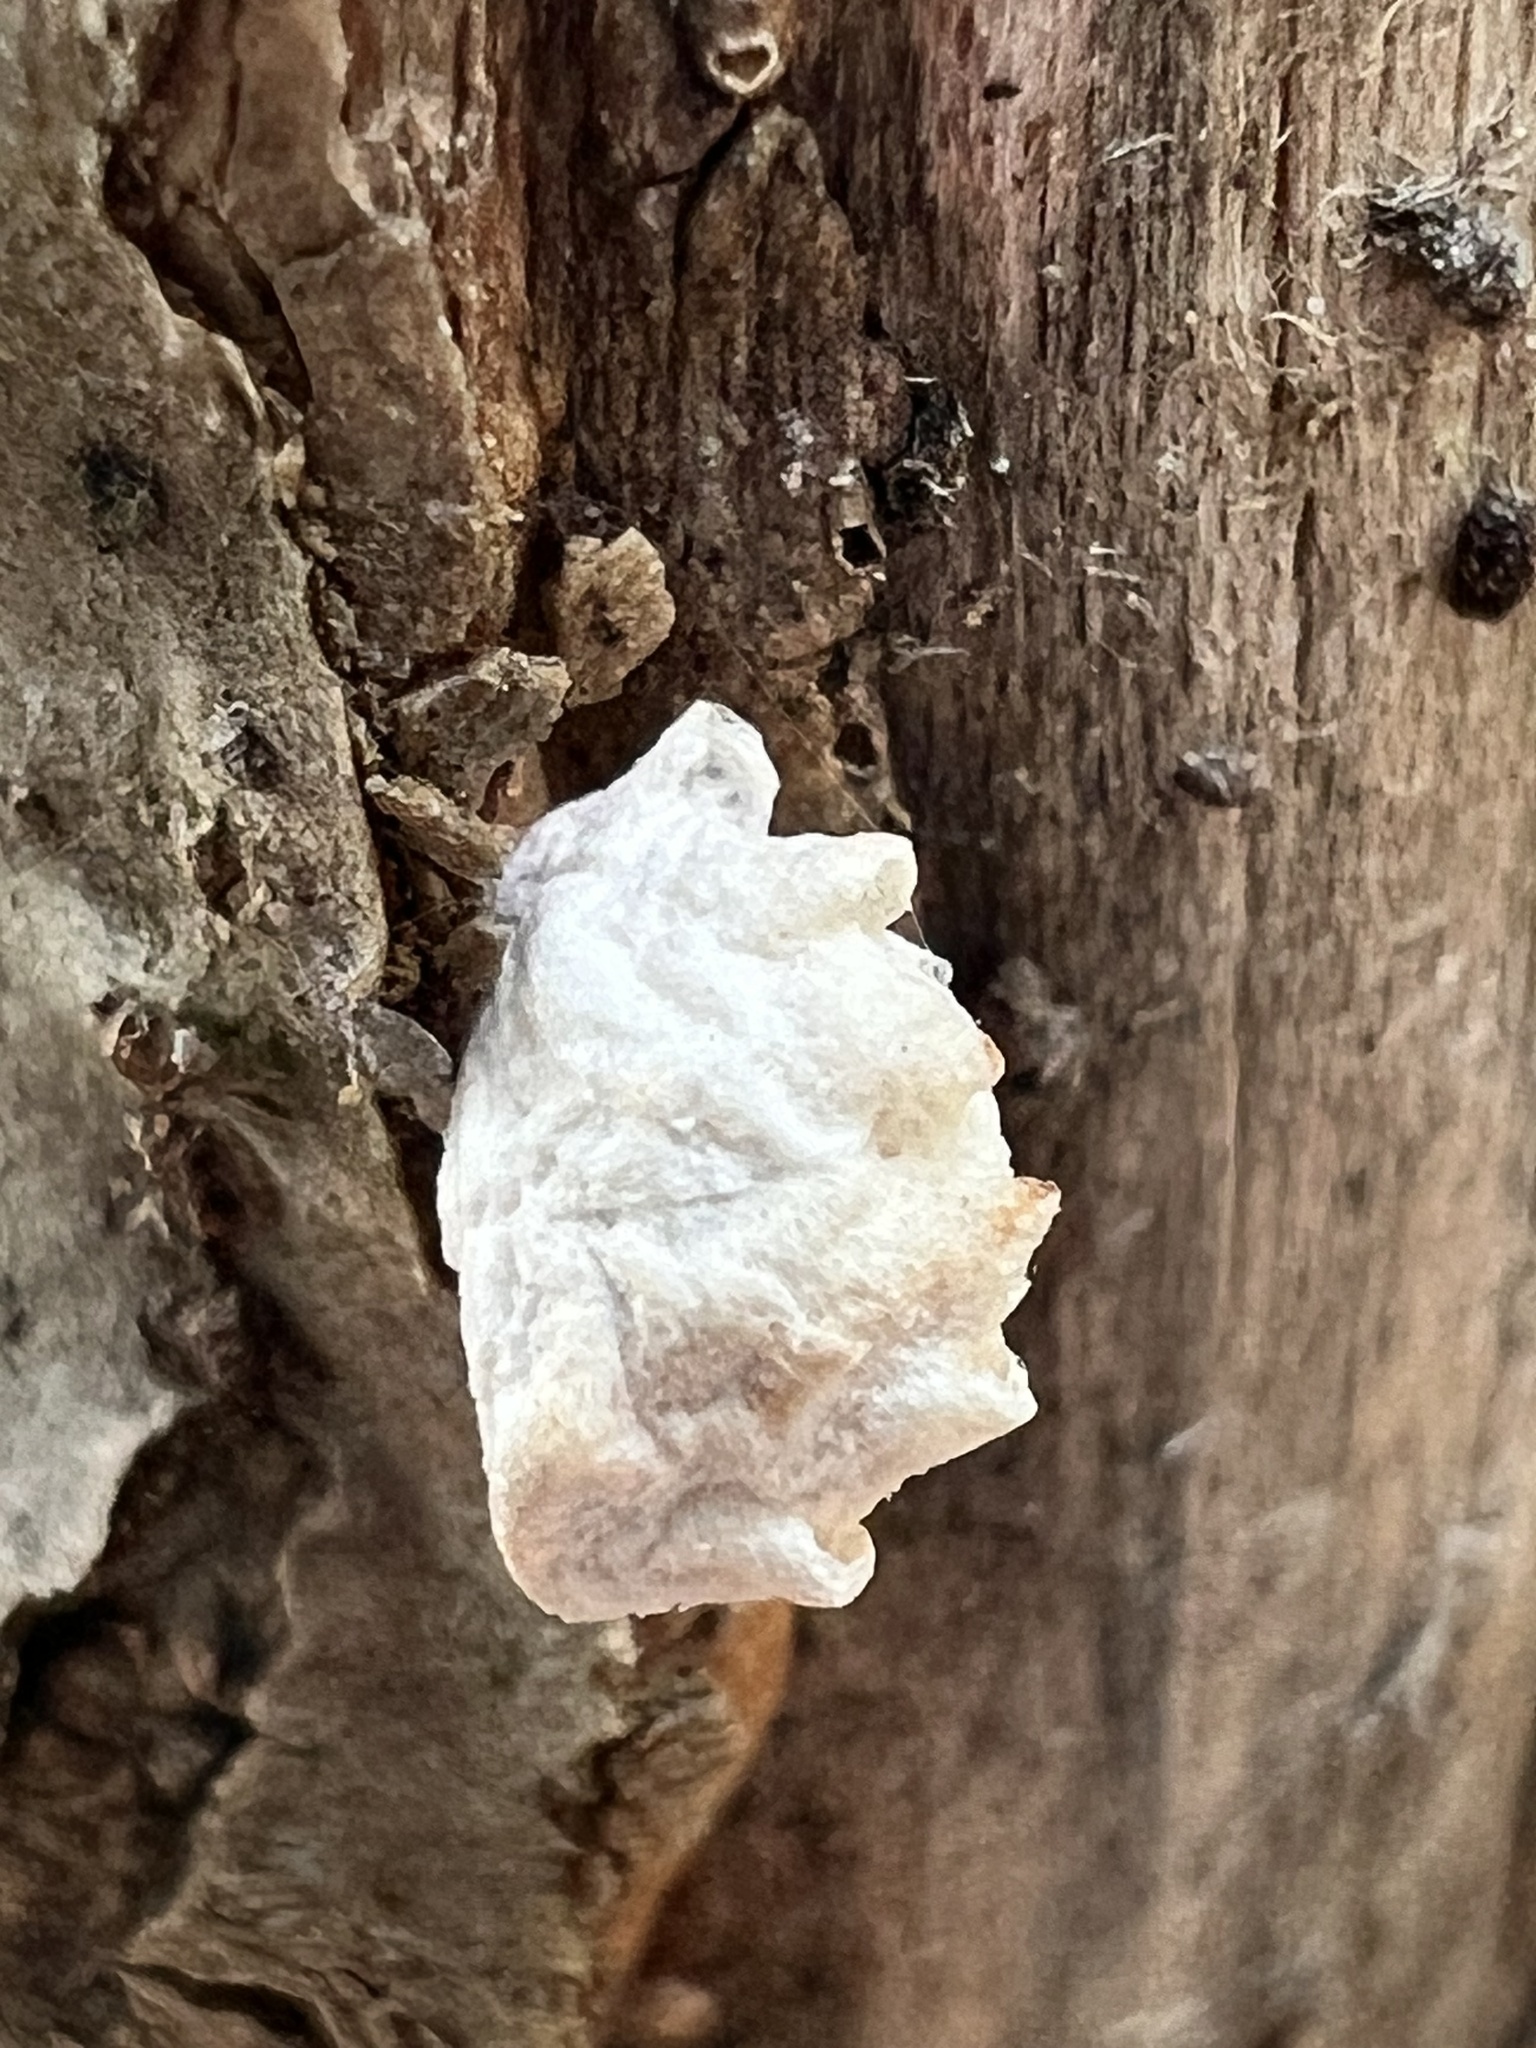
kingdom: Animalia
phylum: Arthropoda
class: Insecta
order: Lepidoptera
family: Epipyropidae
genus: Fulgoraecia
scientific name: Fulgoraecia exigua
